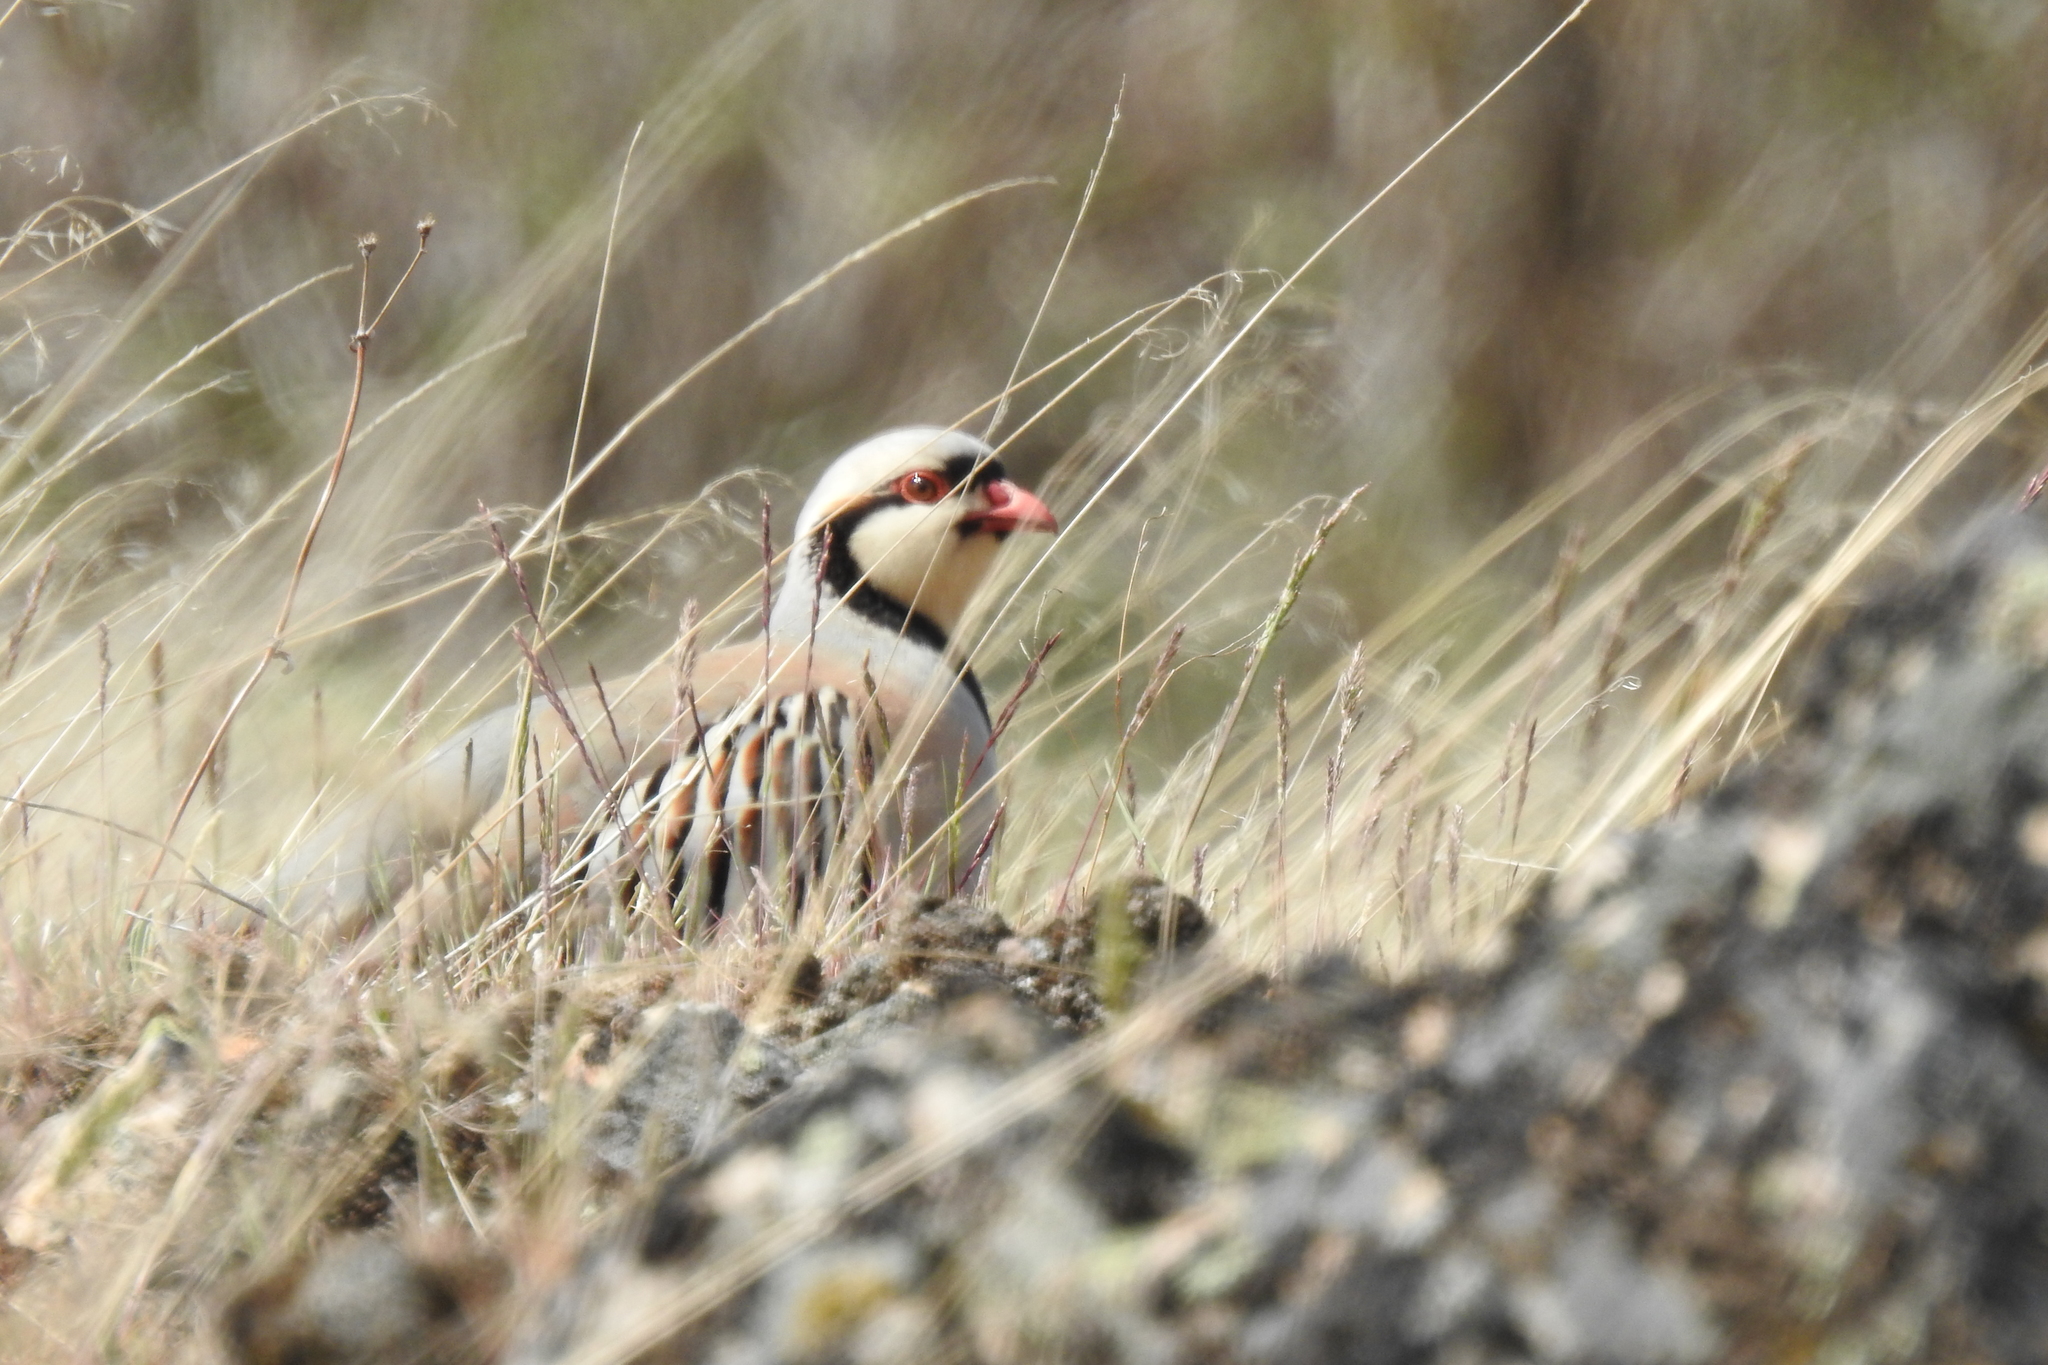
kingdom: Animalia
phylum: Chordata
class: Aves
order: Galliformes
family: Phasianidae
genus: Alectoris
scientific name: Alectoris chukar
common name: Chukar
